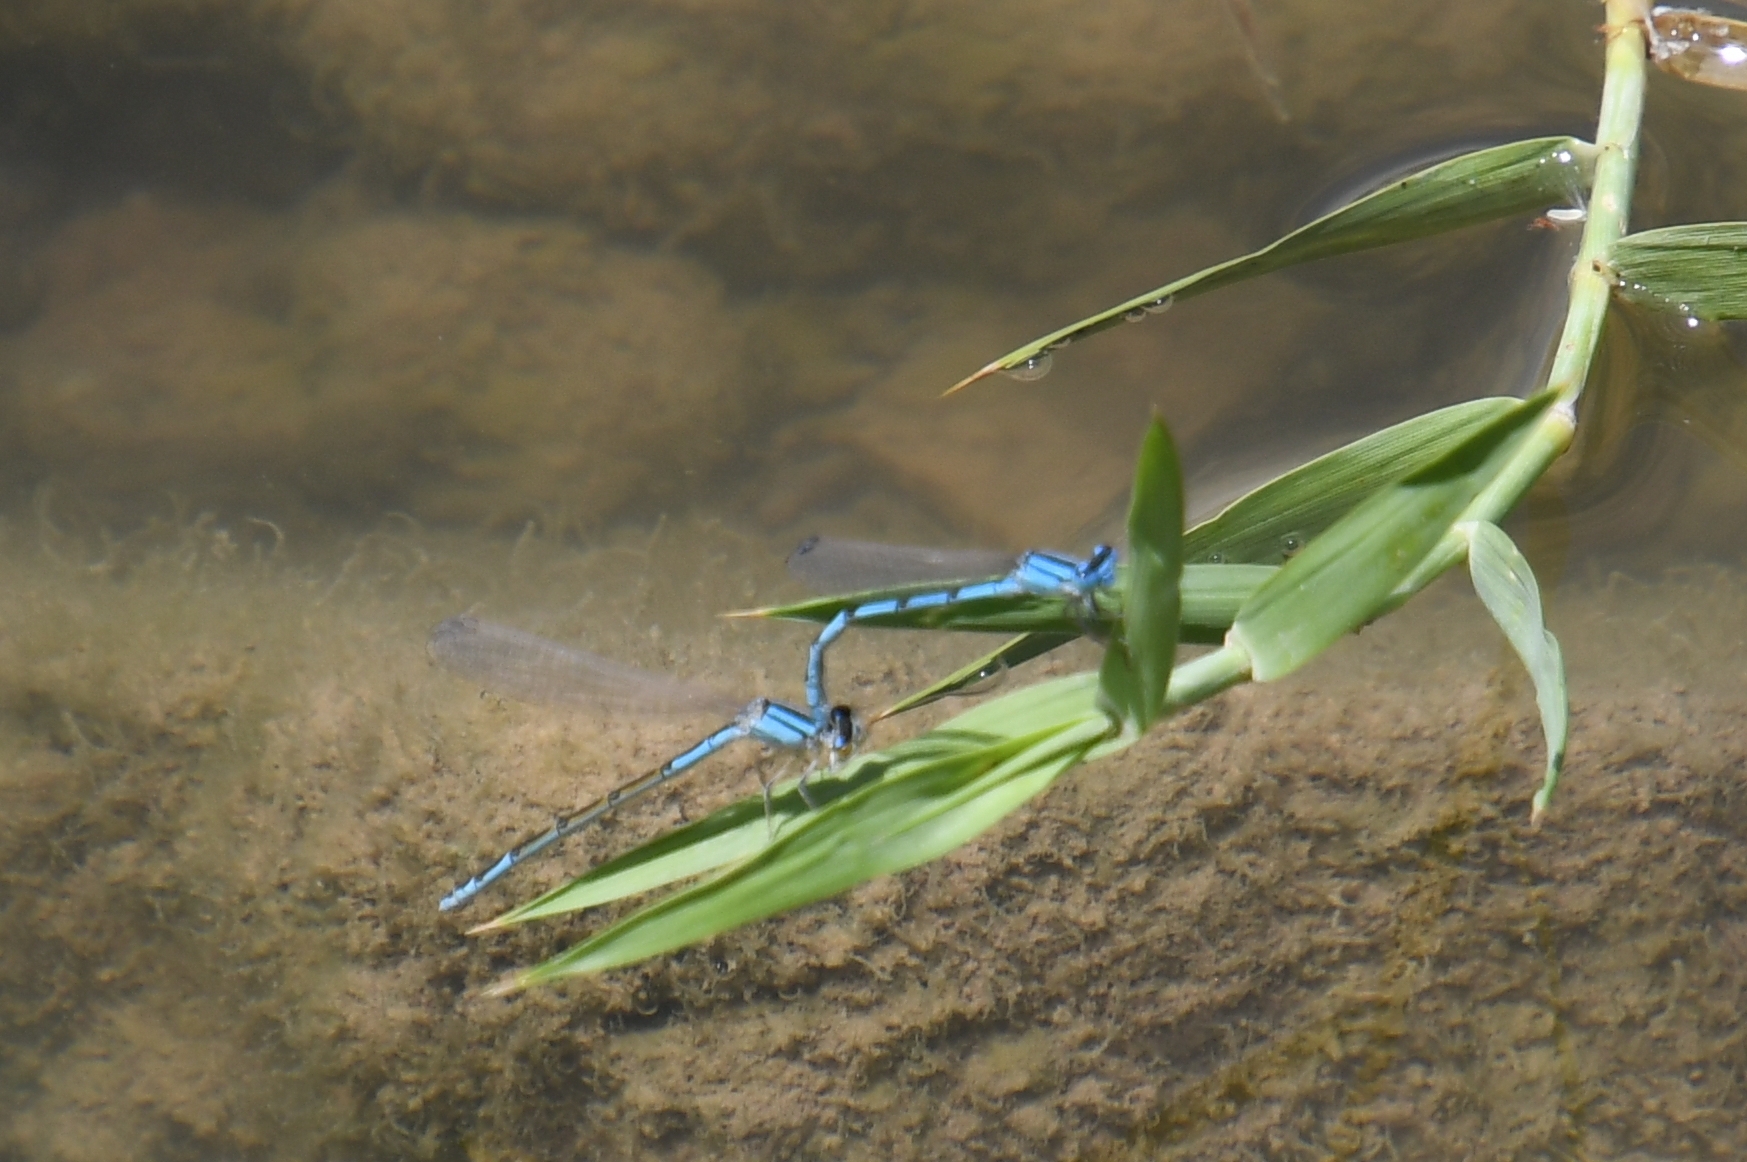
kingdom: Animalia
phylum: Arthropoda
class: Insecta
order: Odonata
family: Coenagrionidae
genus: Enallagma
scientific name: Enallagma civile
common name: Damselfly
